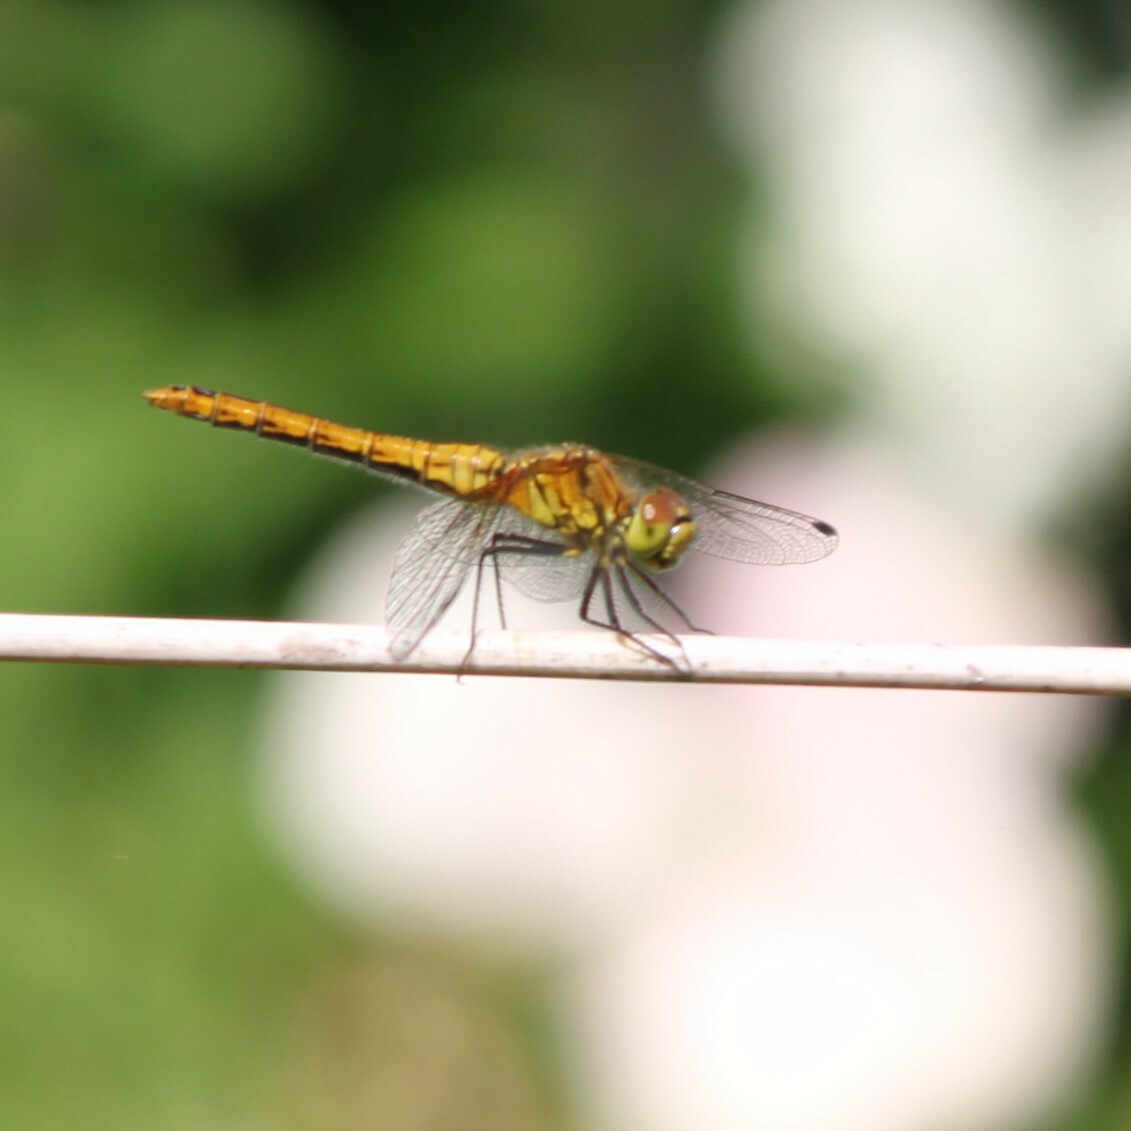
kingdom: Animalia
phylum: Arthropoda
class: Insecta
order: Odonata
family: Libellulidae
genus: Sympetrum
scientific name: Sympetrum striolatum
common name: Common darter
